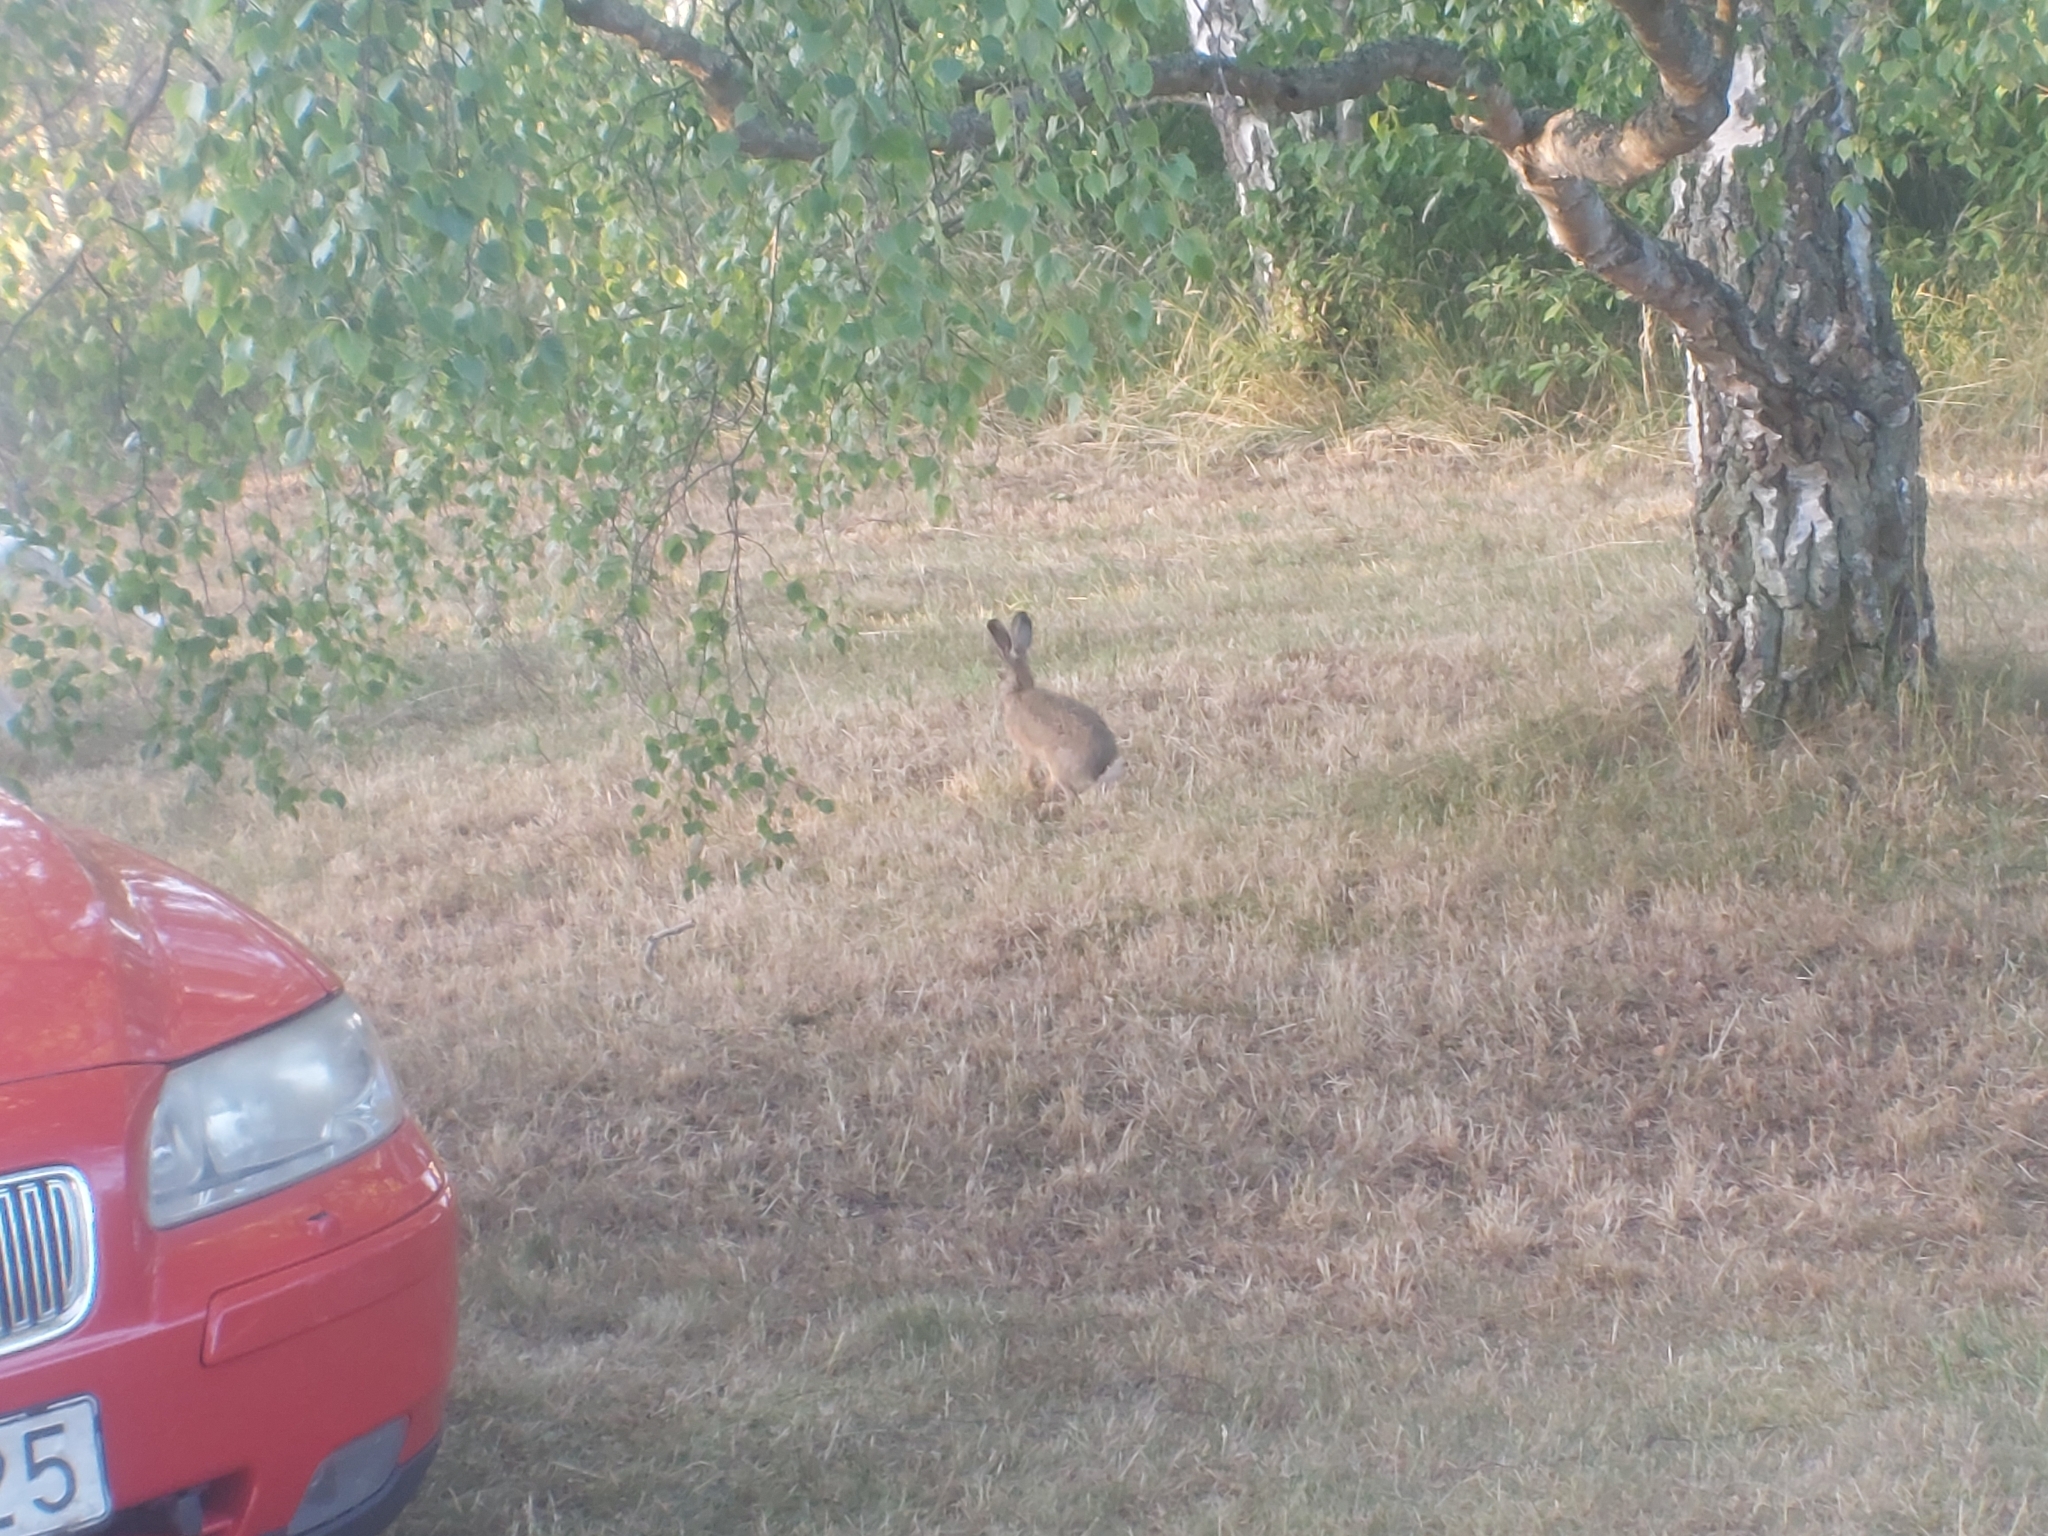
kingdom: Animalia
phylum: Chordata
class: Mammalia
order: Lagomorpha
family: Leporidae
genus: Lepus
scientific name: Lepus europaeus
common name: European hare
